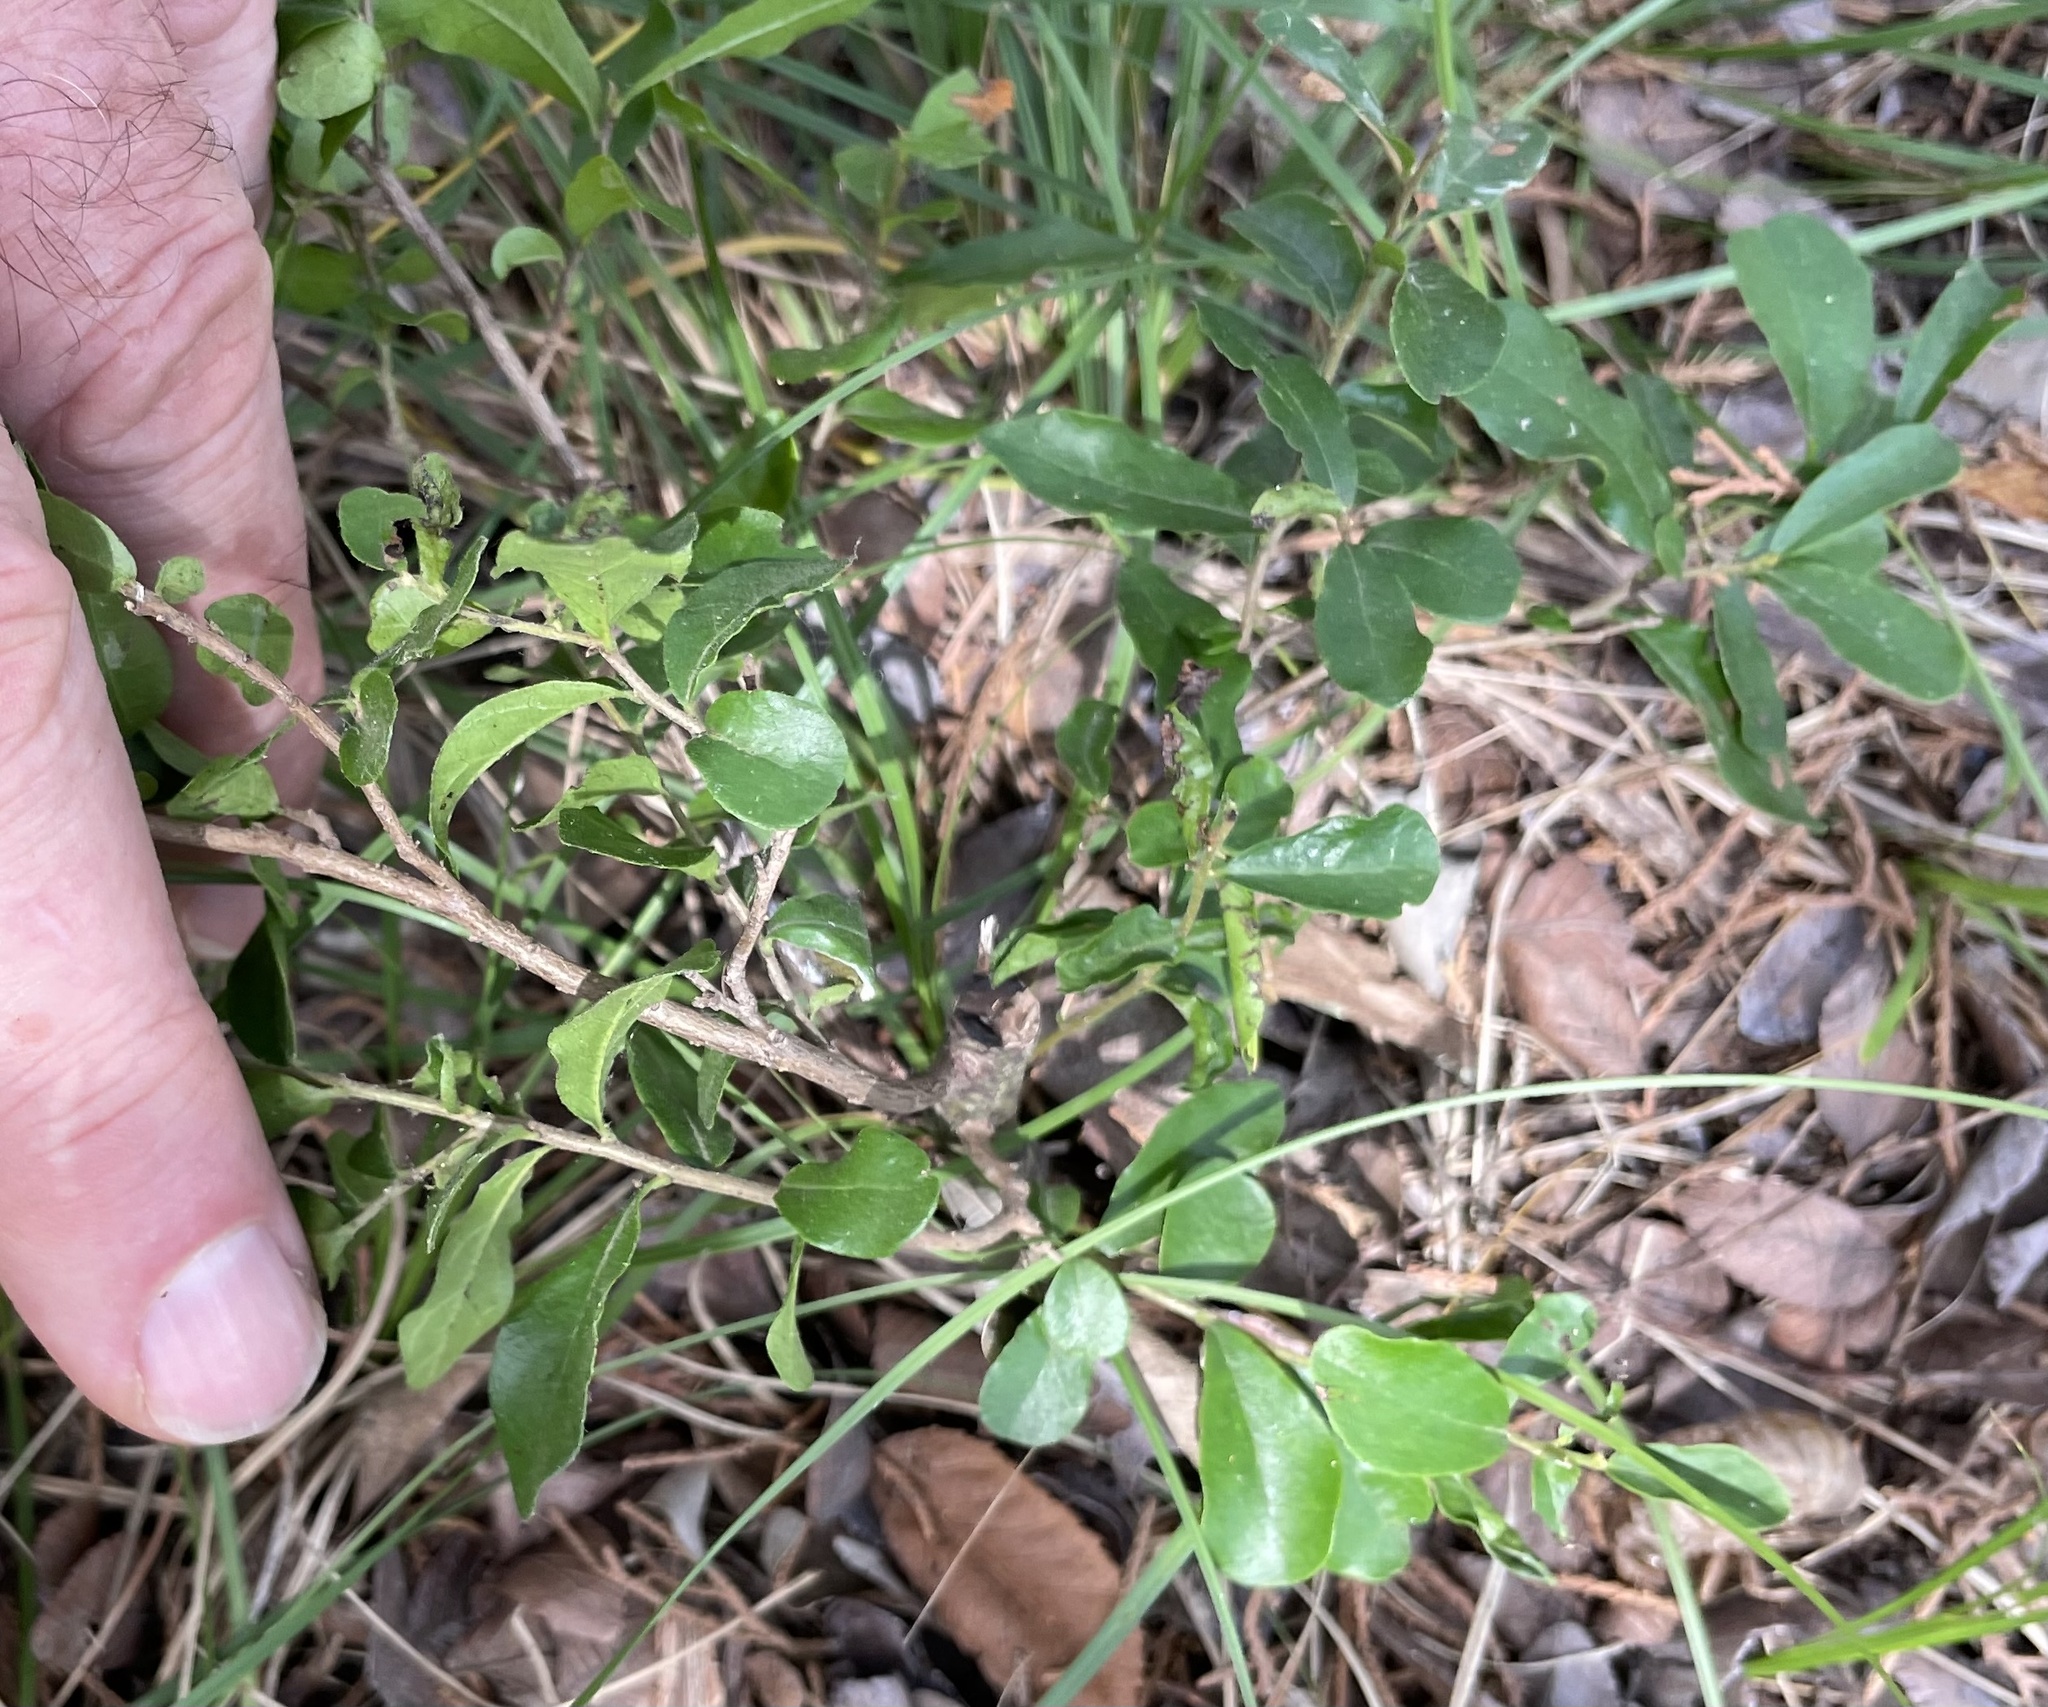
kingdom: Plantae
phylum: Tracheophyta
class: Magnoliopsida
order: Ericales
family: Ebenaceae
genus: Diospyros
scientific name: Diospyros texana
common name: Texas persimmon
